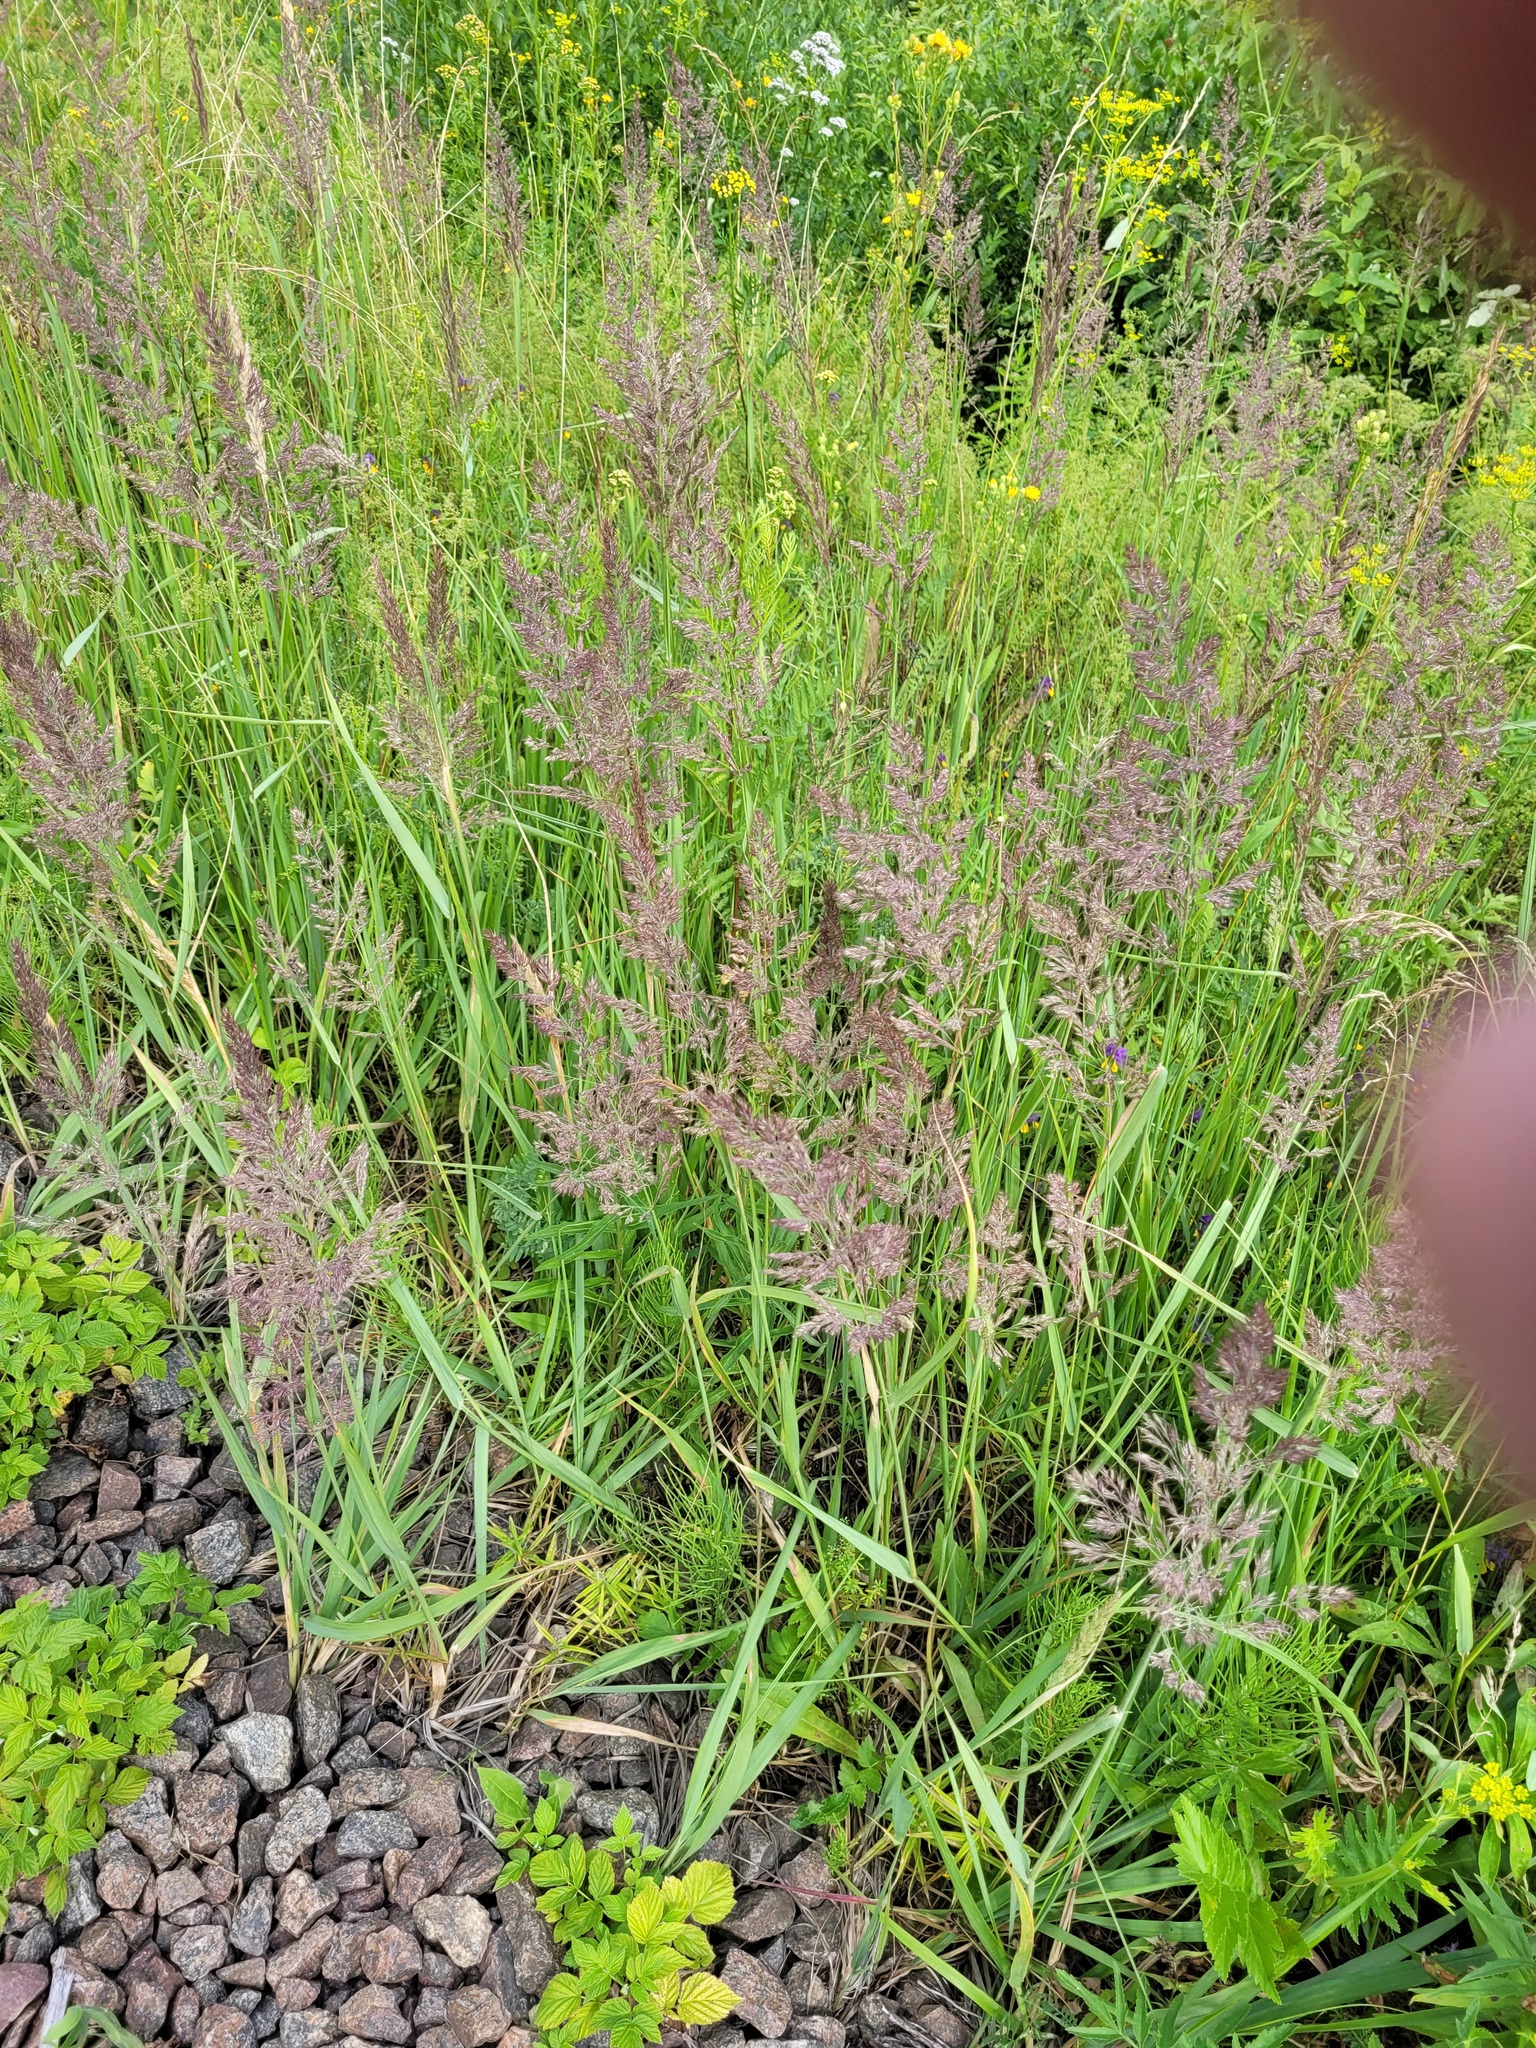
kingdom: Plantae
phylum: Tracheophyta
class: Liliopsida
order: Poales
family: Poaceae
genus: Calamagrostis
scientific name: Calamagrostis epigejos
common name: Wood small-reed
